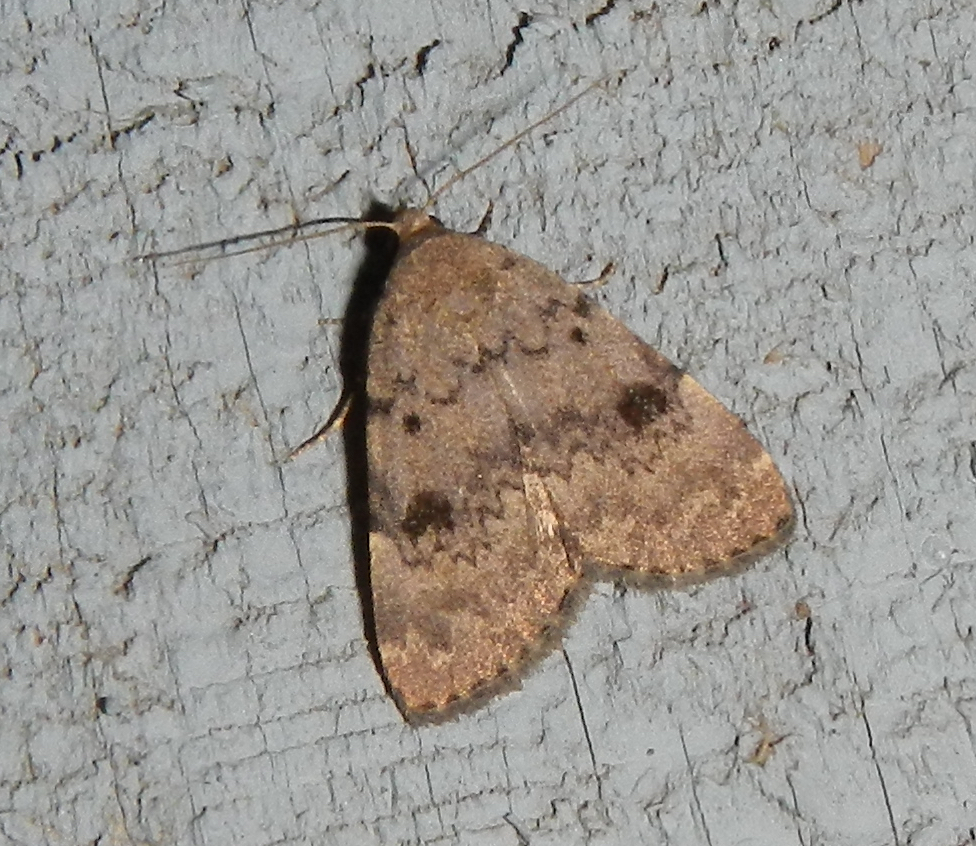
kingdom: Animalia
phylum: Arthropoda
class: Insecta
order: Lepidoptera
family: Erebidae
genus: Idia
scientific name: Idia aemula
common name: Common idia moth
